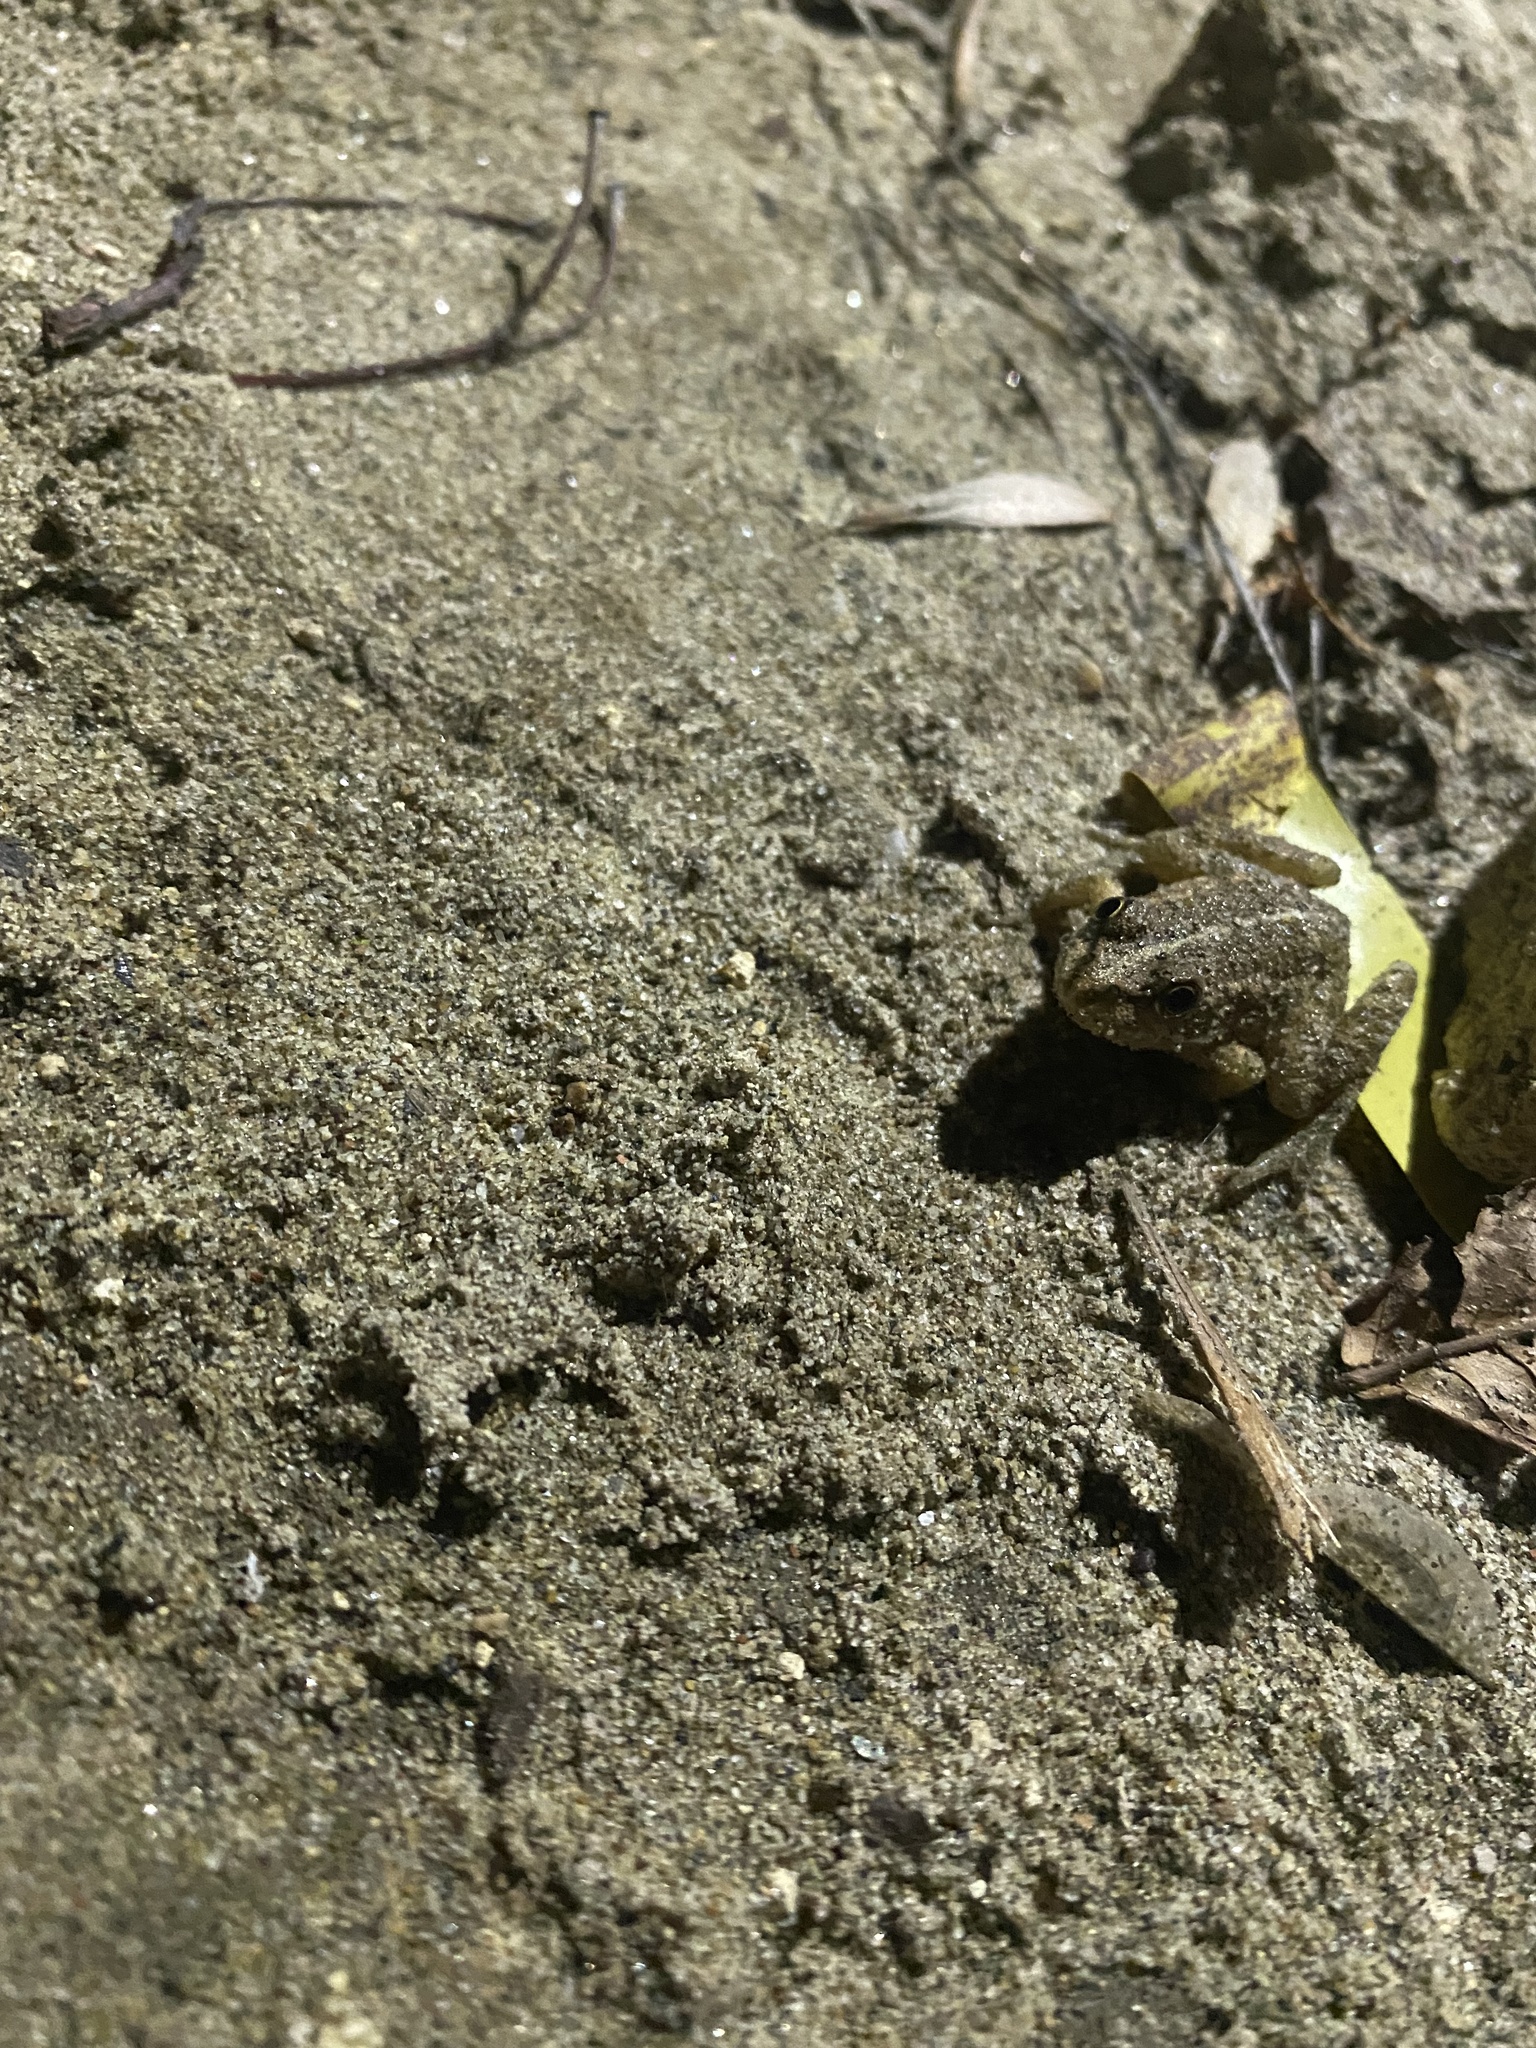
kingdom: Animalia
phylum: Chordata
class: Amphibia
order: Anura
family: Ranidae
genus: Pelophylax
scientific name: Pelophylax ridibundus
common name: Marsh frog
